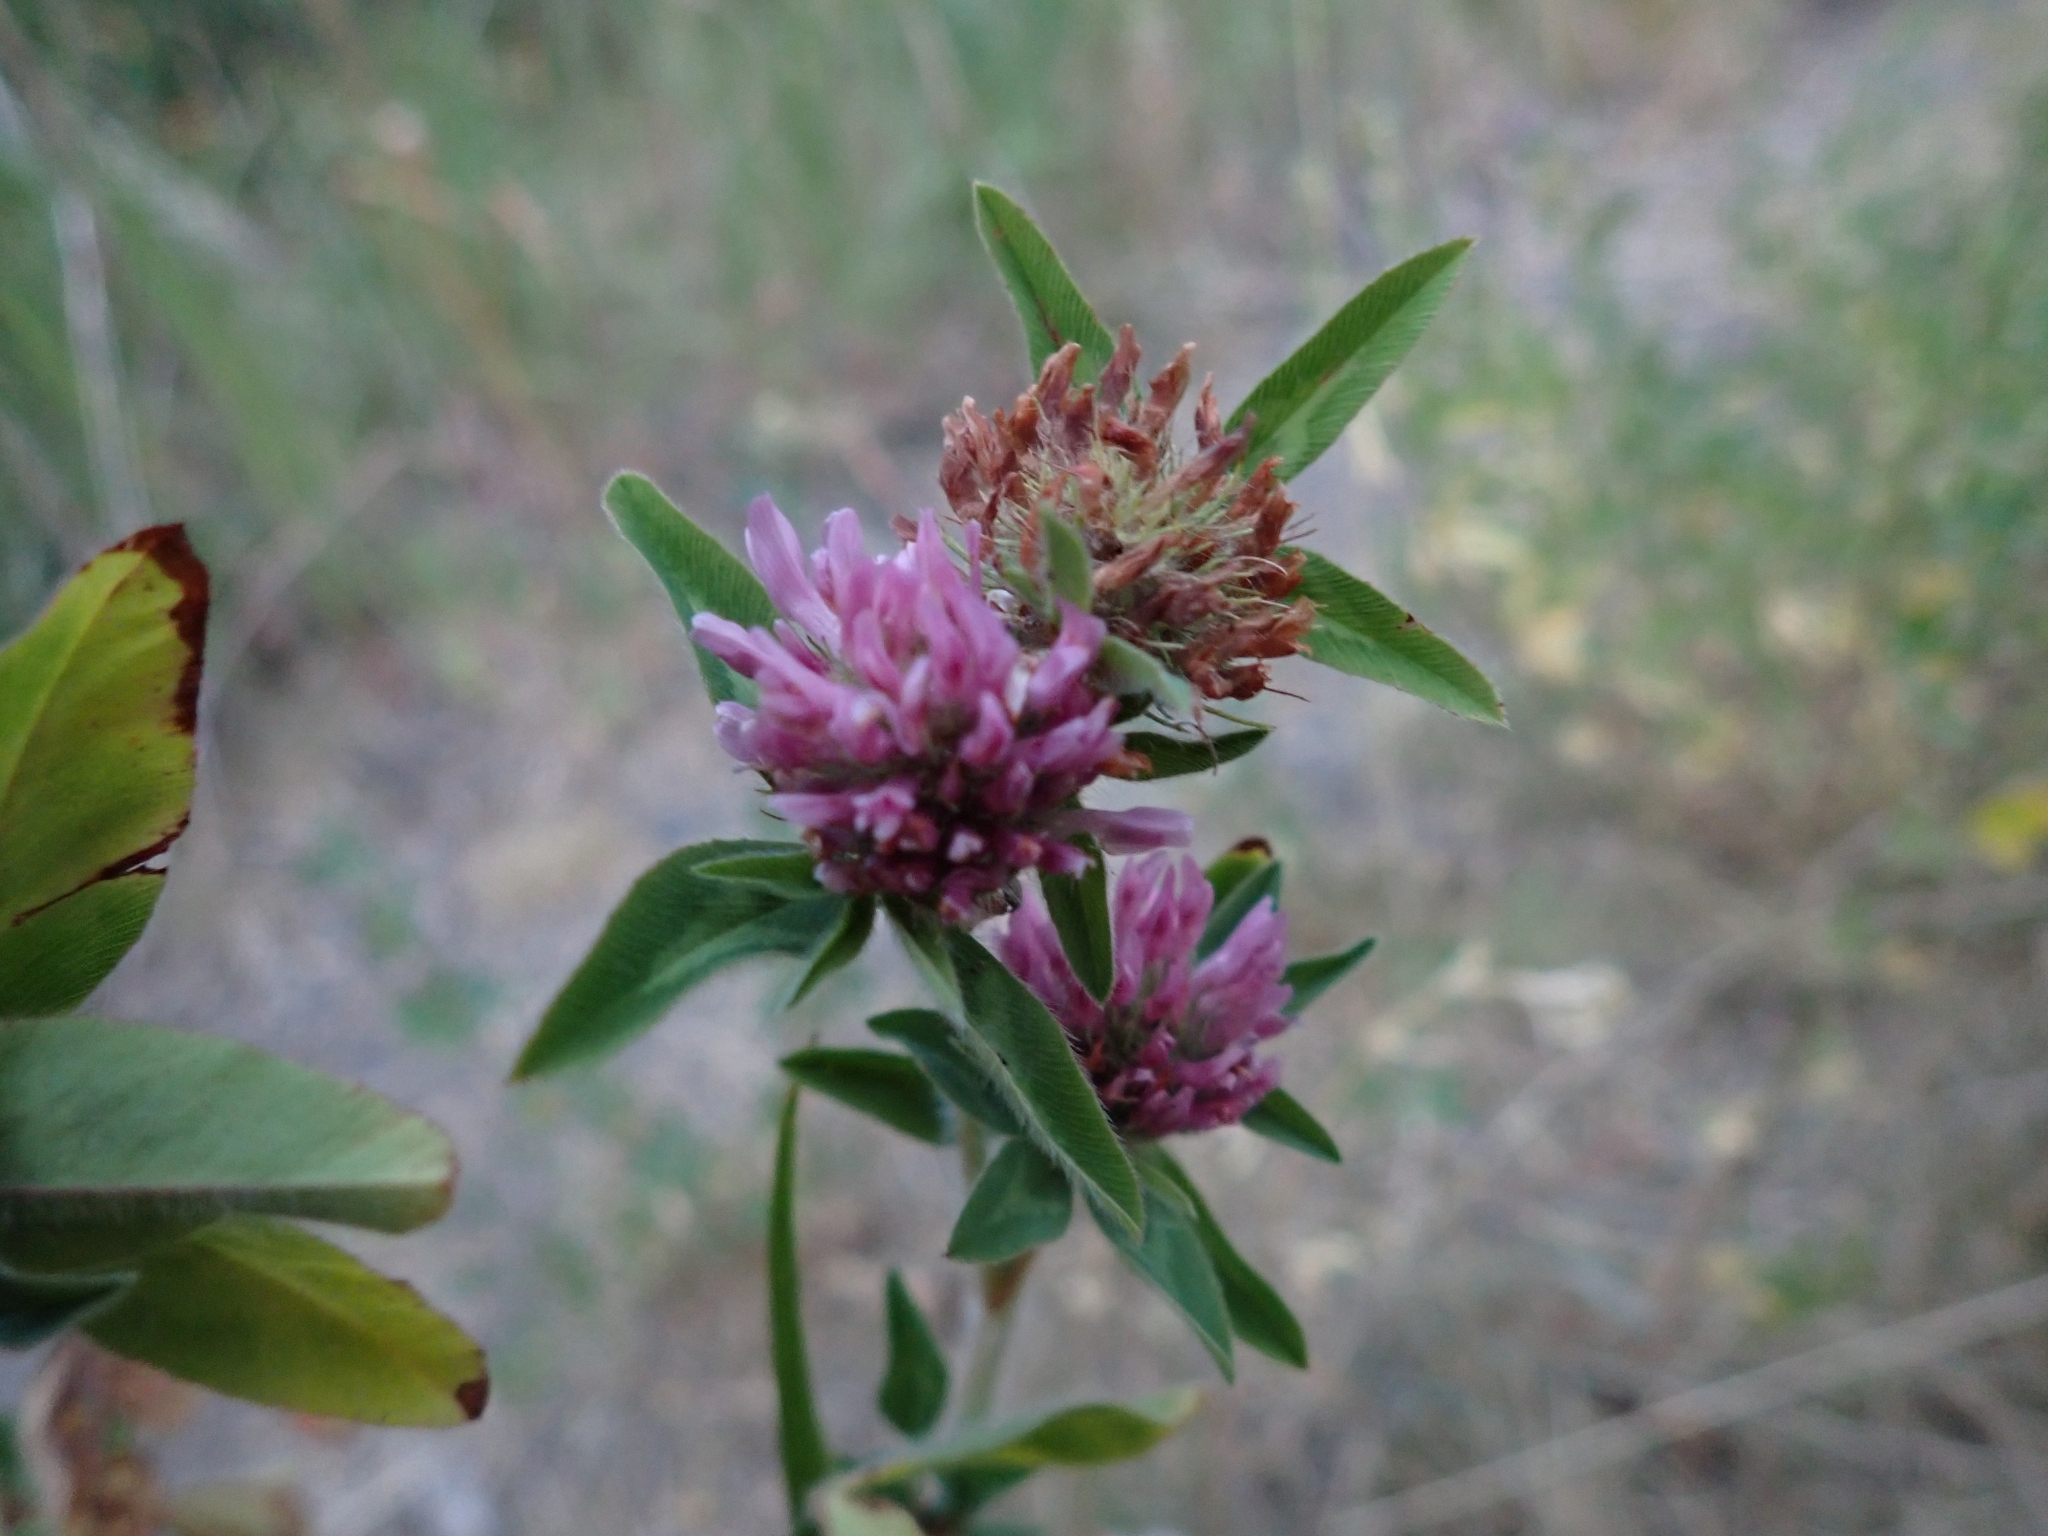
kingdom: Plantae
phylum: Tracheophyta
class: Magnoliopsida
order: Fabales
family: Fabaceae
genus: Trifolium
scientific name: Trifolium pratense
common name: Red clover
